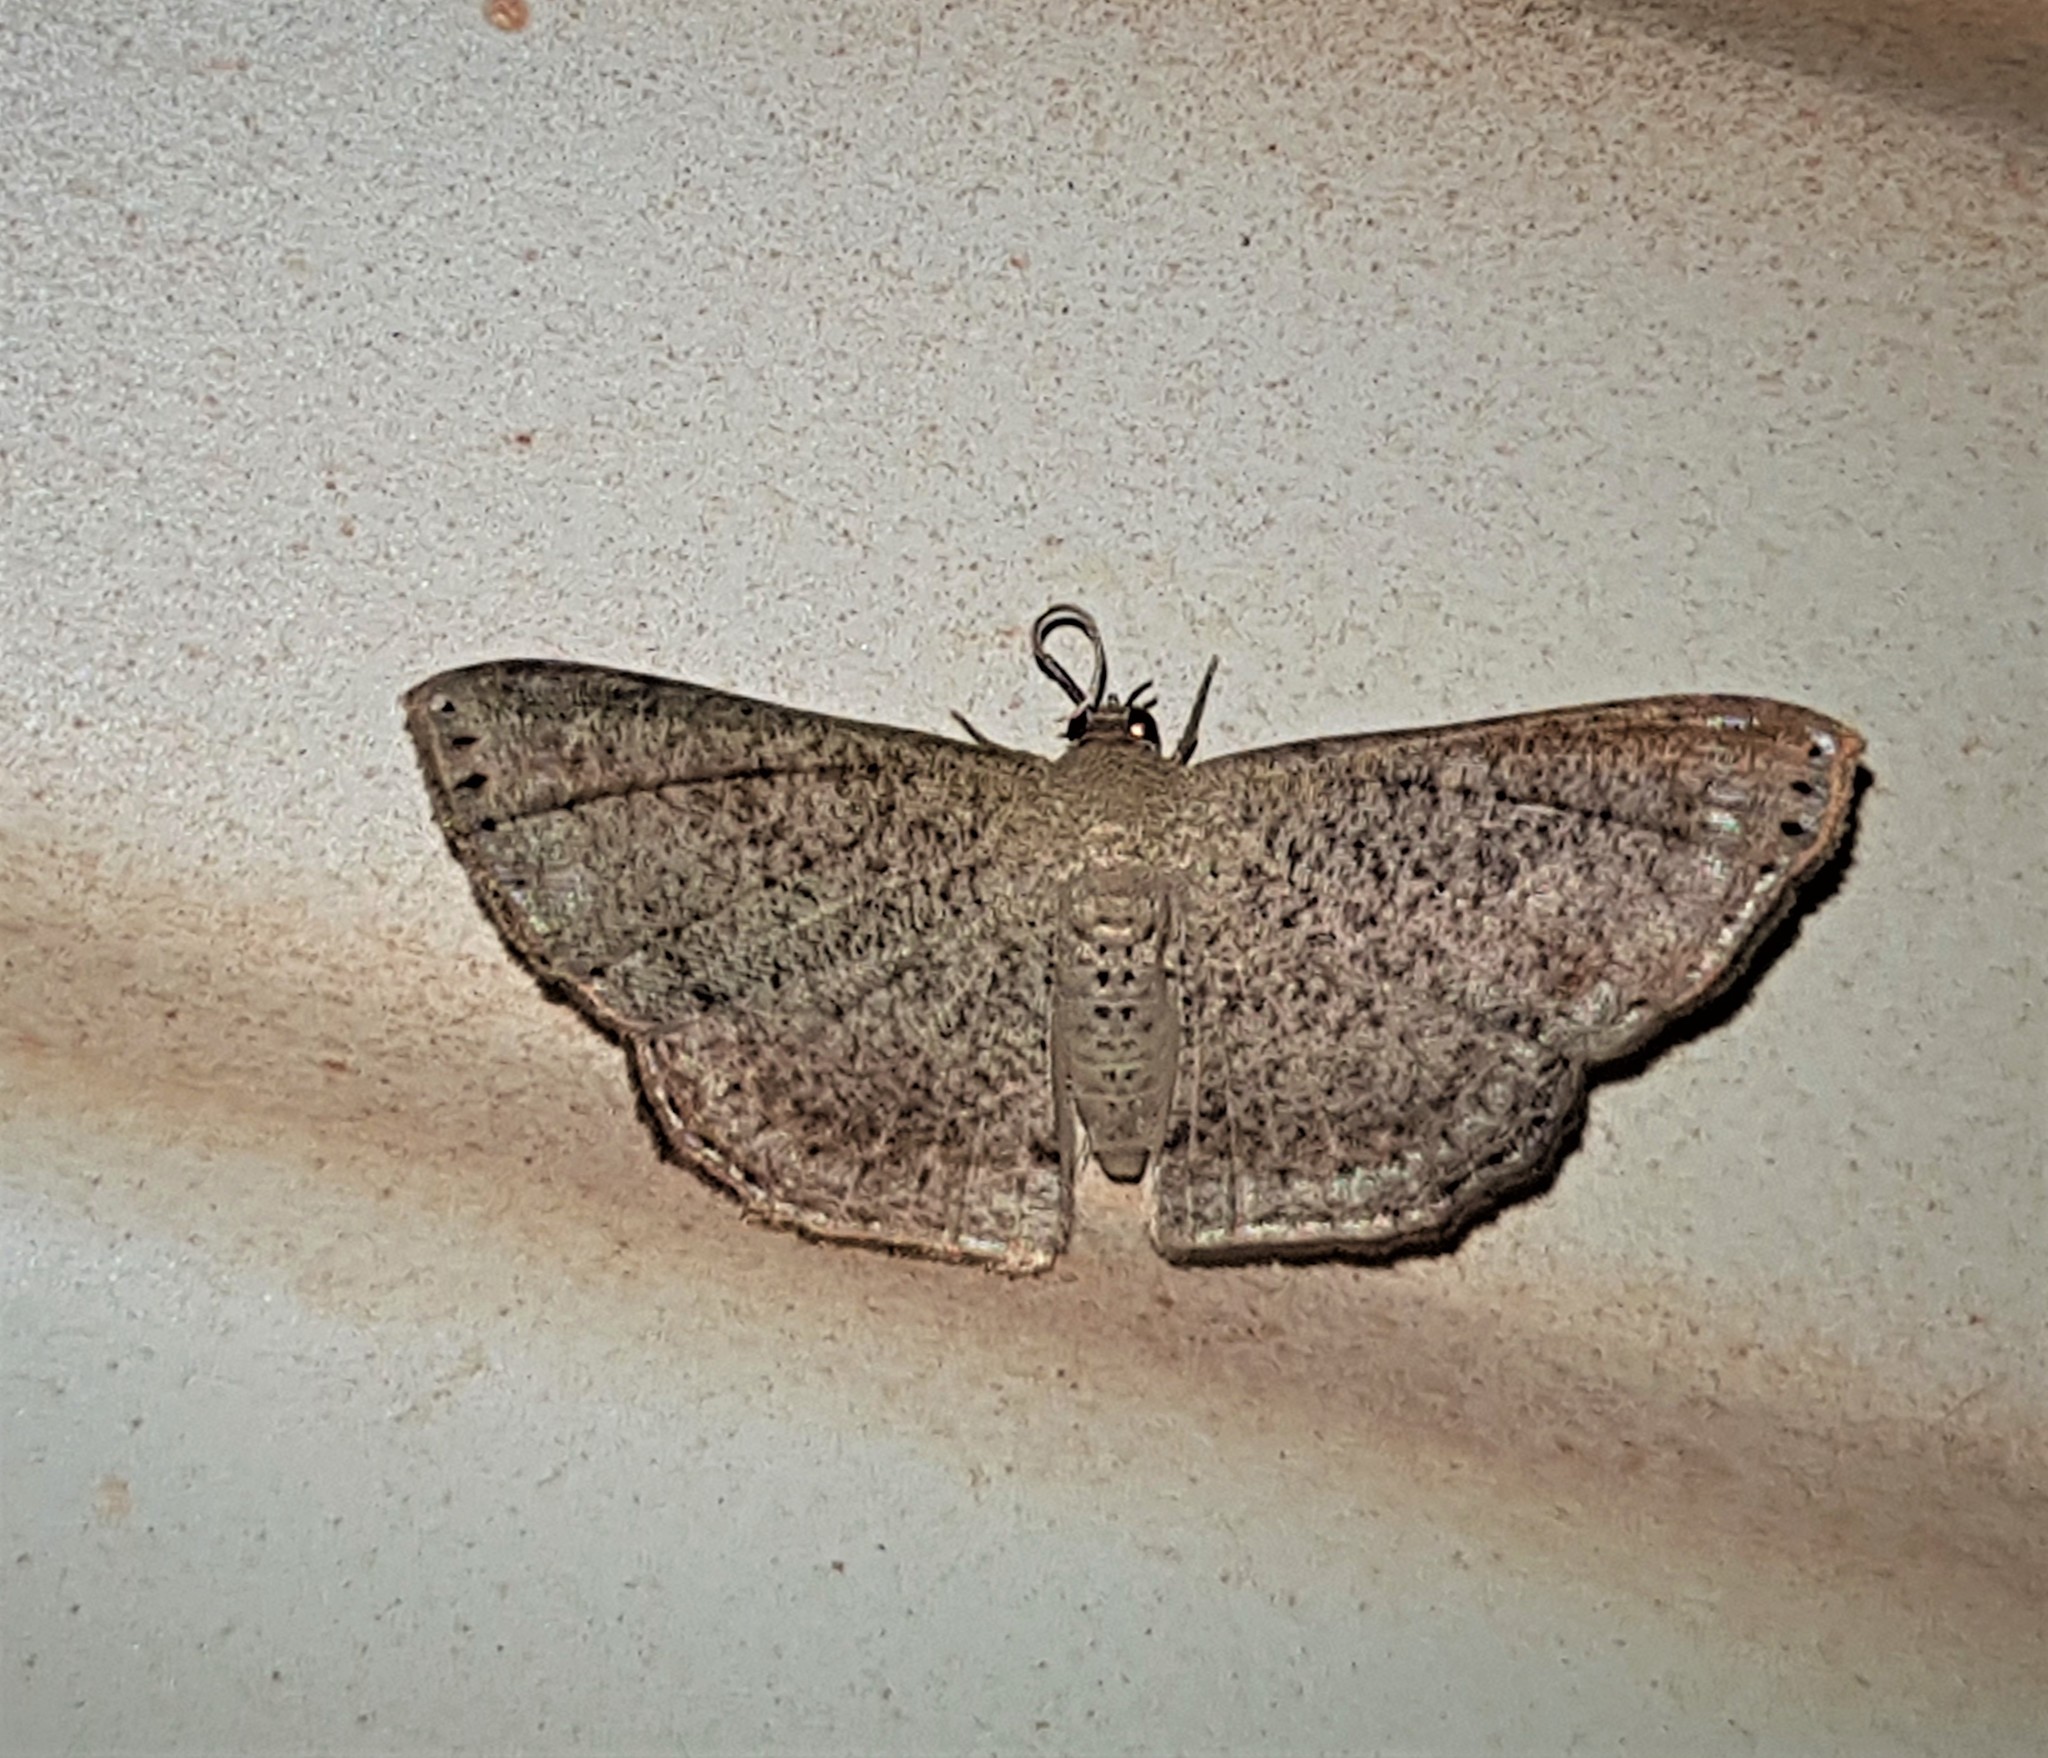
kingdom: Animalia
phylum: Arthropoda
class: Insecta
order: Lepidoptera
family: Uraniidae
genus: Molybdophora
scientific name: Molybdophora concinnaria
